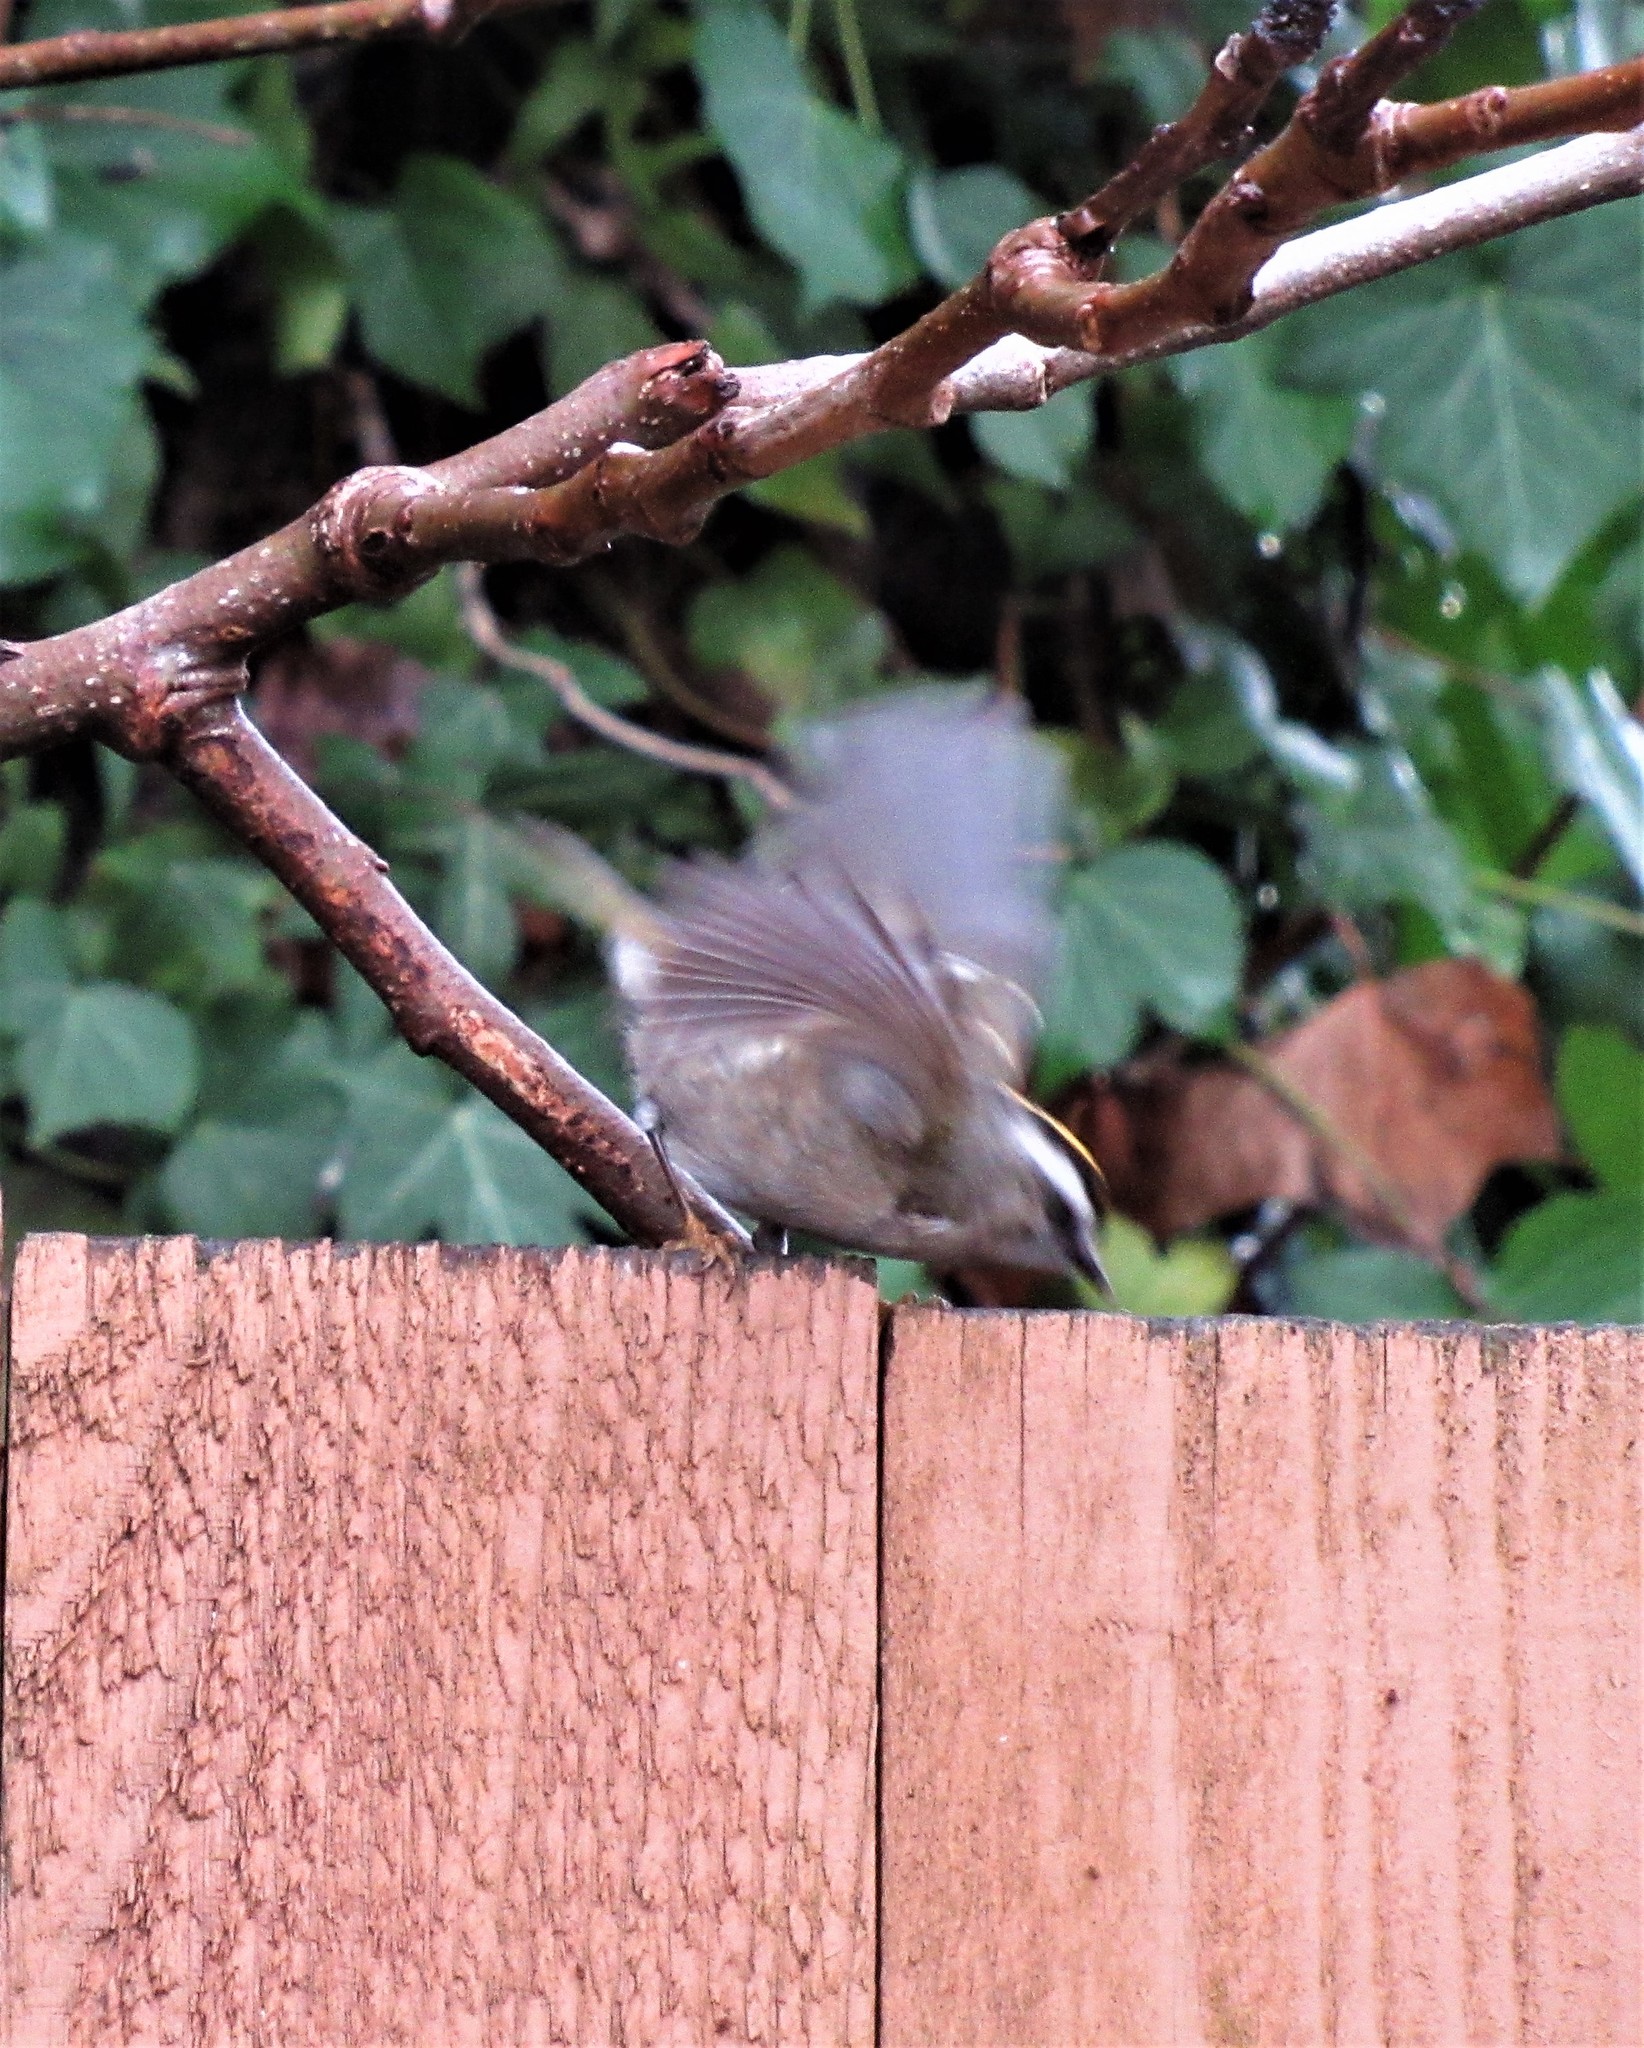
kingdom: Animalia
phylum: Chordata
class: Aves
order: Passeriformes
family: Regulidae
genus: Regulus
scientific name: Regulus satrapa
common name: Golden-crowned kinglet
